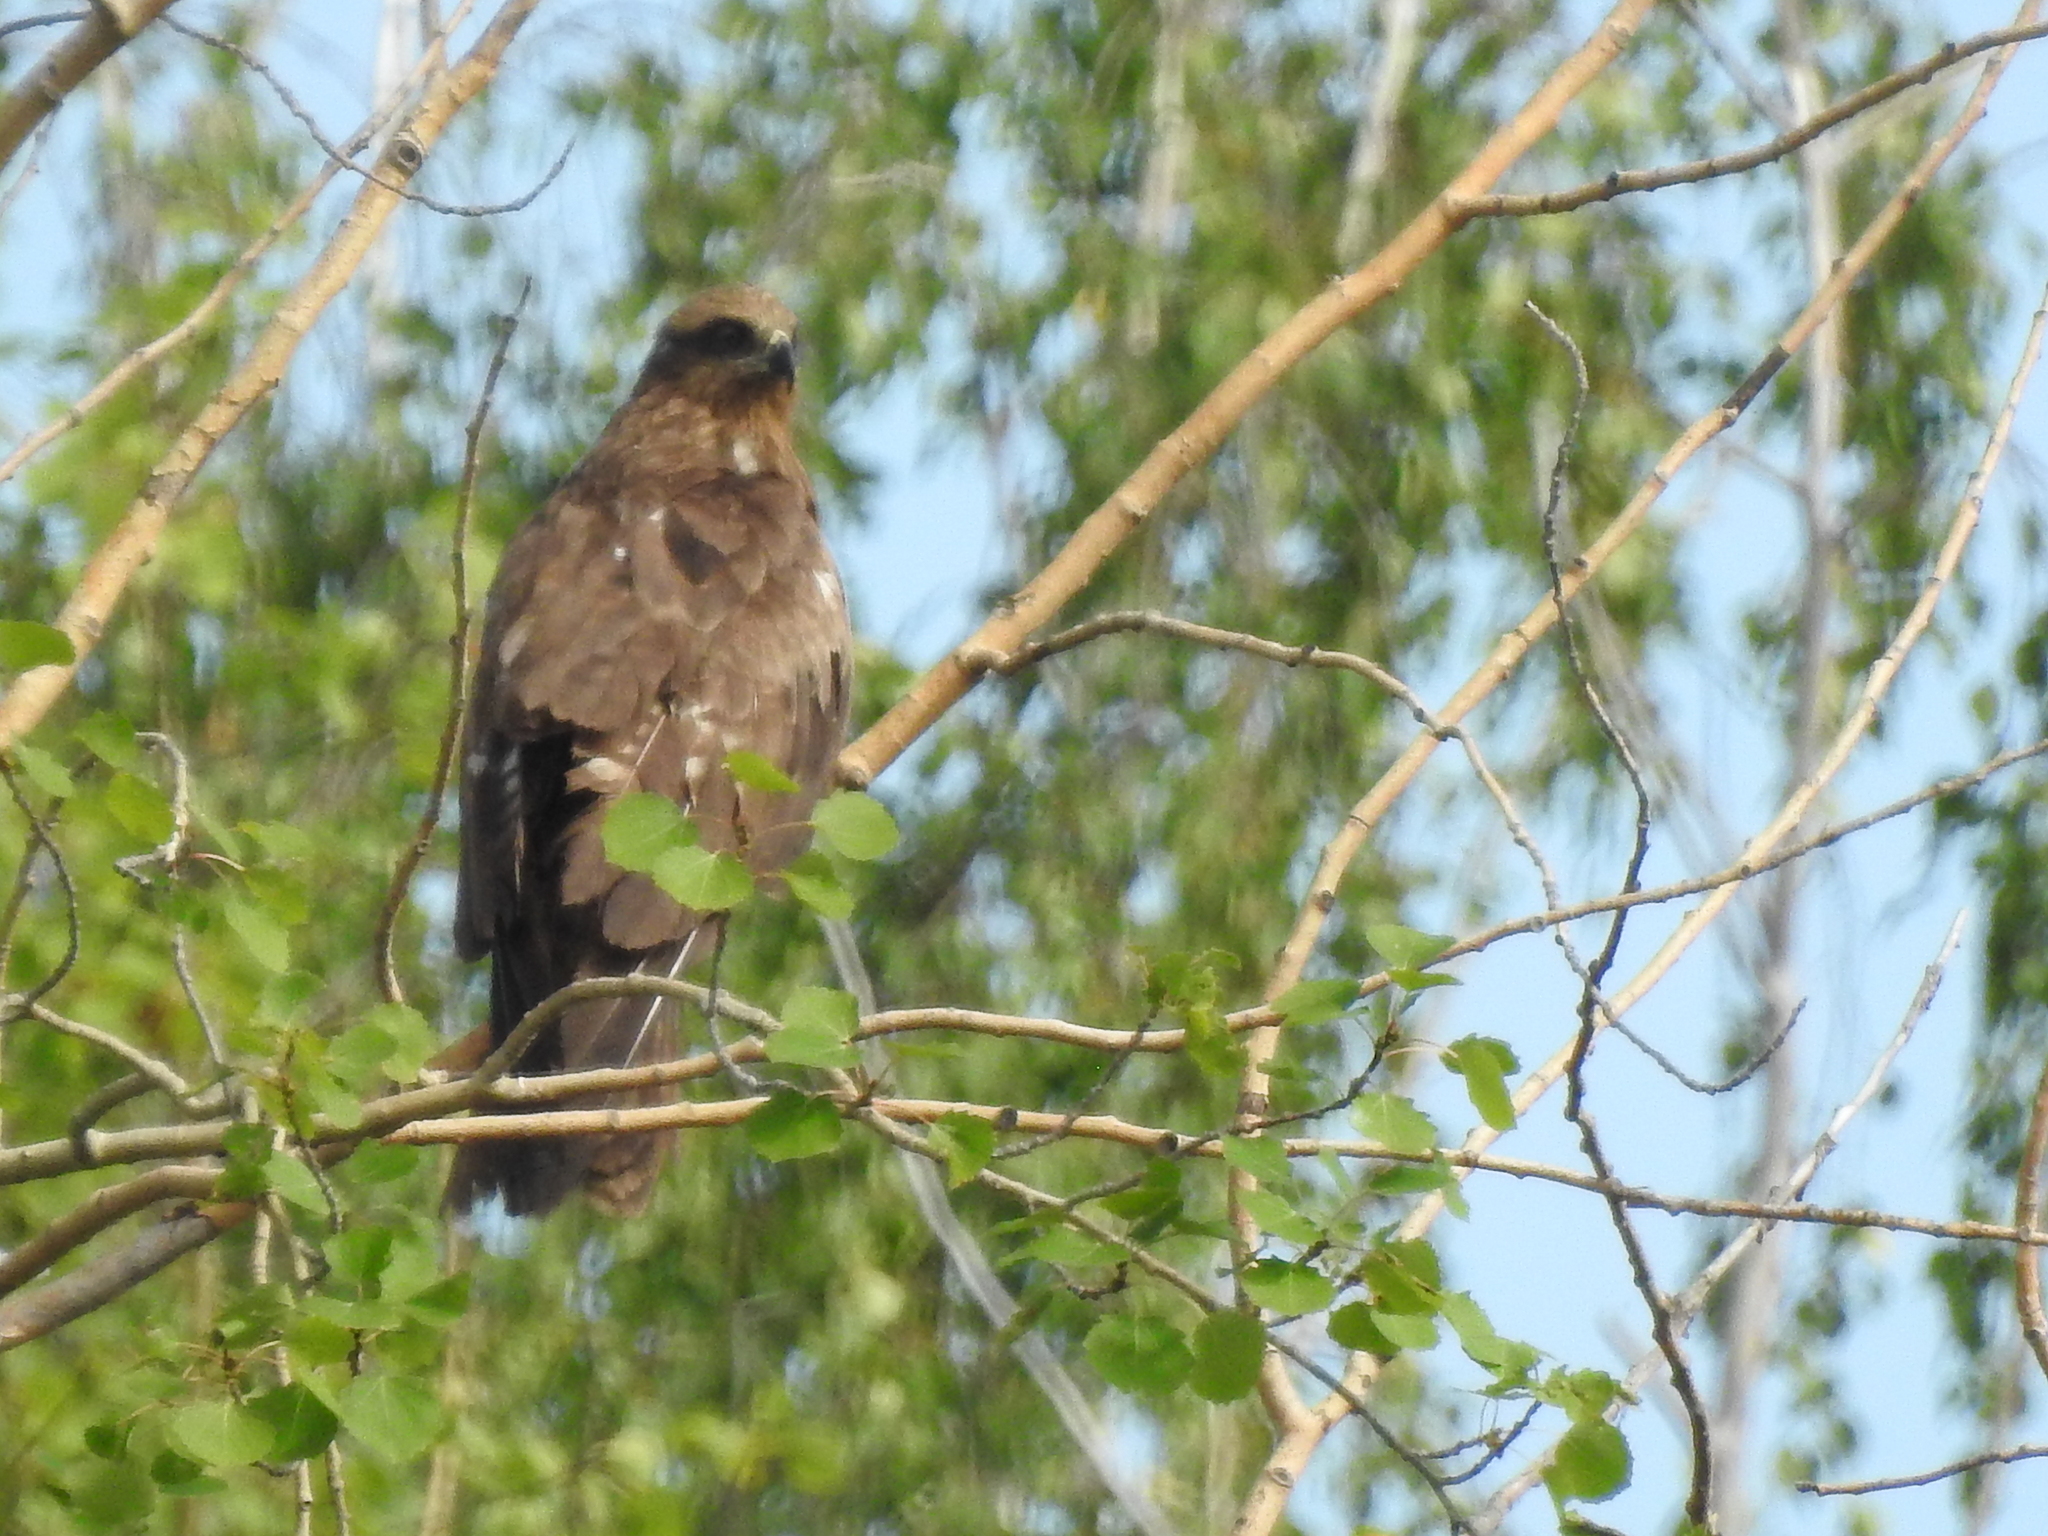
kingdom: Animalia
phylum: Chordata
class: Aves
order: Accipitriformes
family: Accipitridae
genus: Milvus
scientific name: Milvus migrans
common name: Black kite
